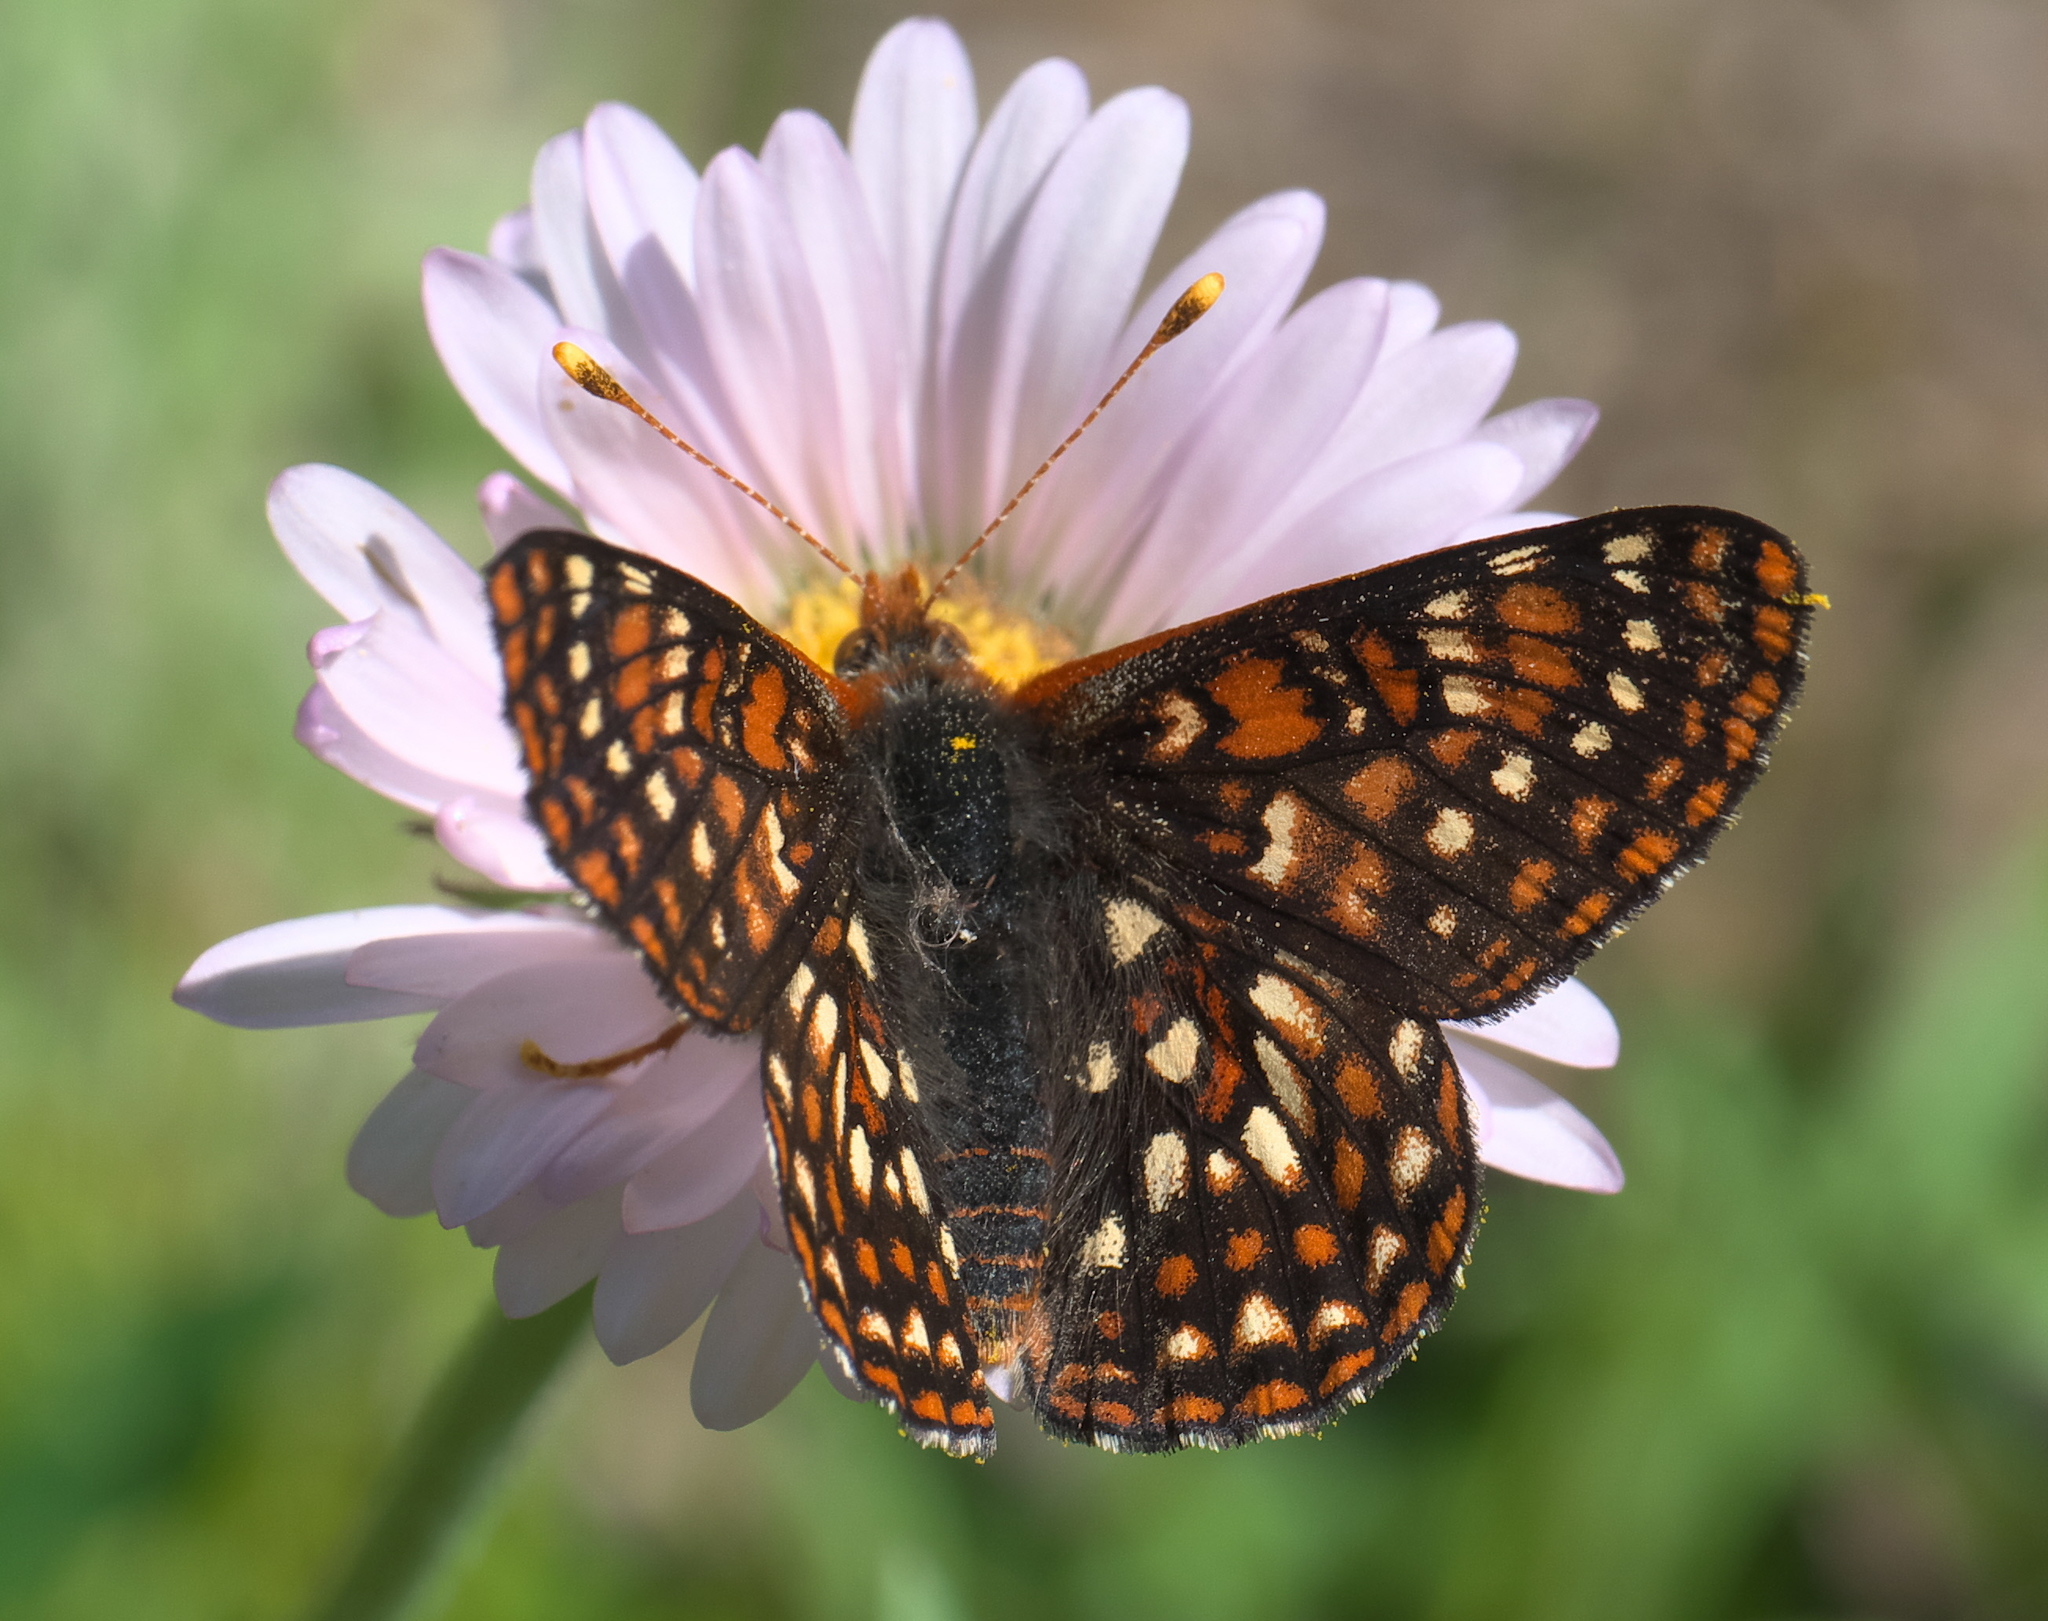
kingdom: Animalia
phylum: Arthropoda
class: Insecta
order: Lepidoptera
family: Nymphalidae
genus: Occidryas
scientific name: Occidryas anicia
